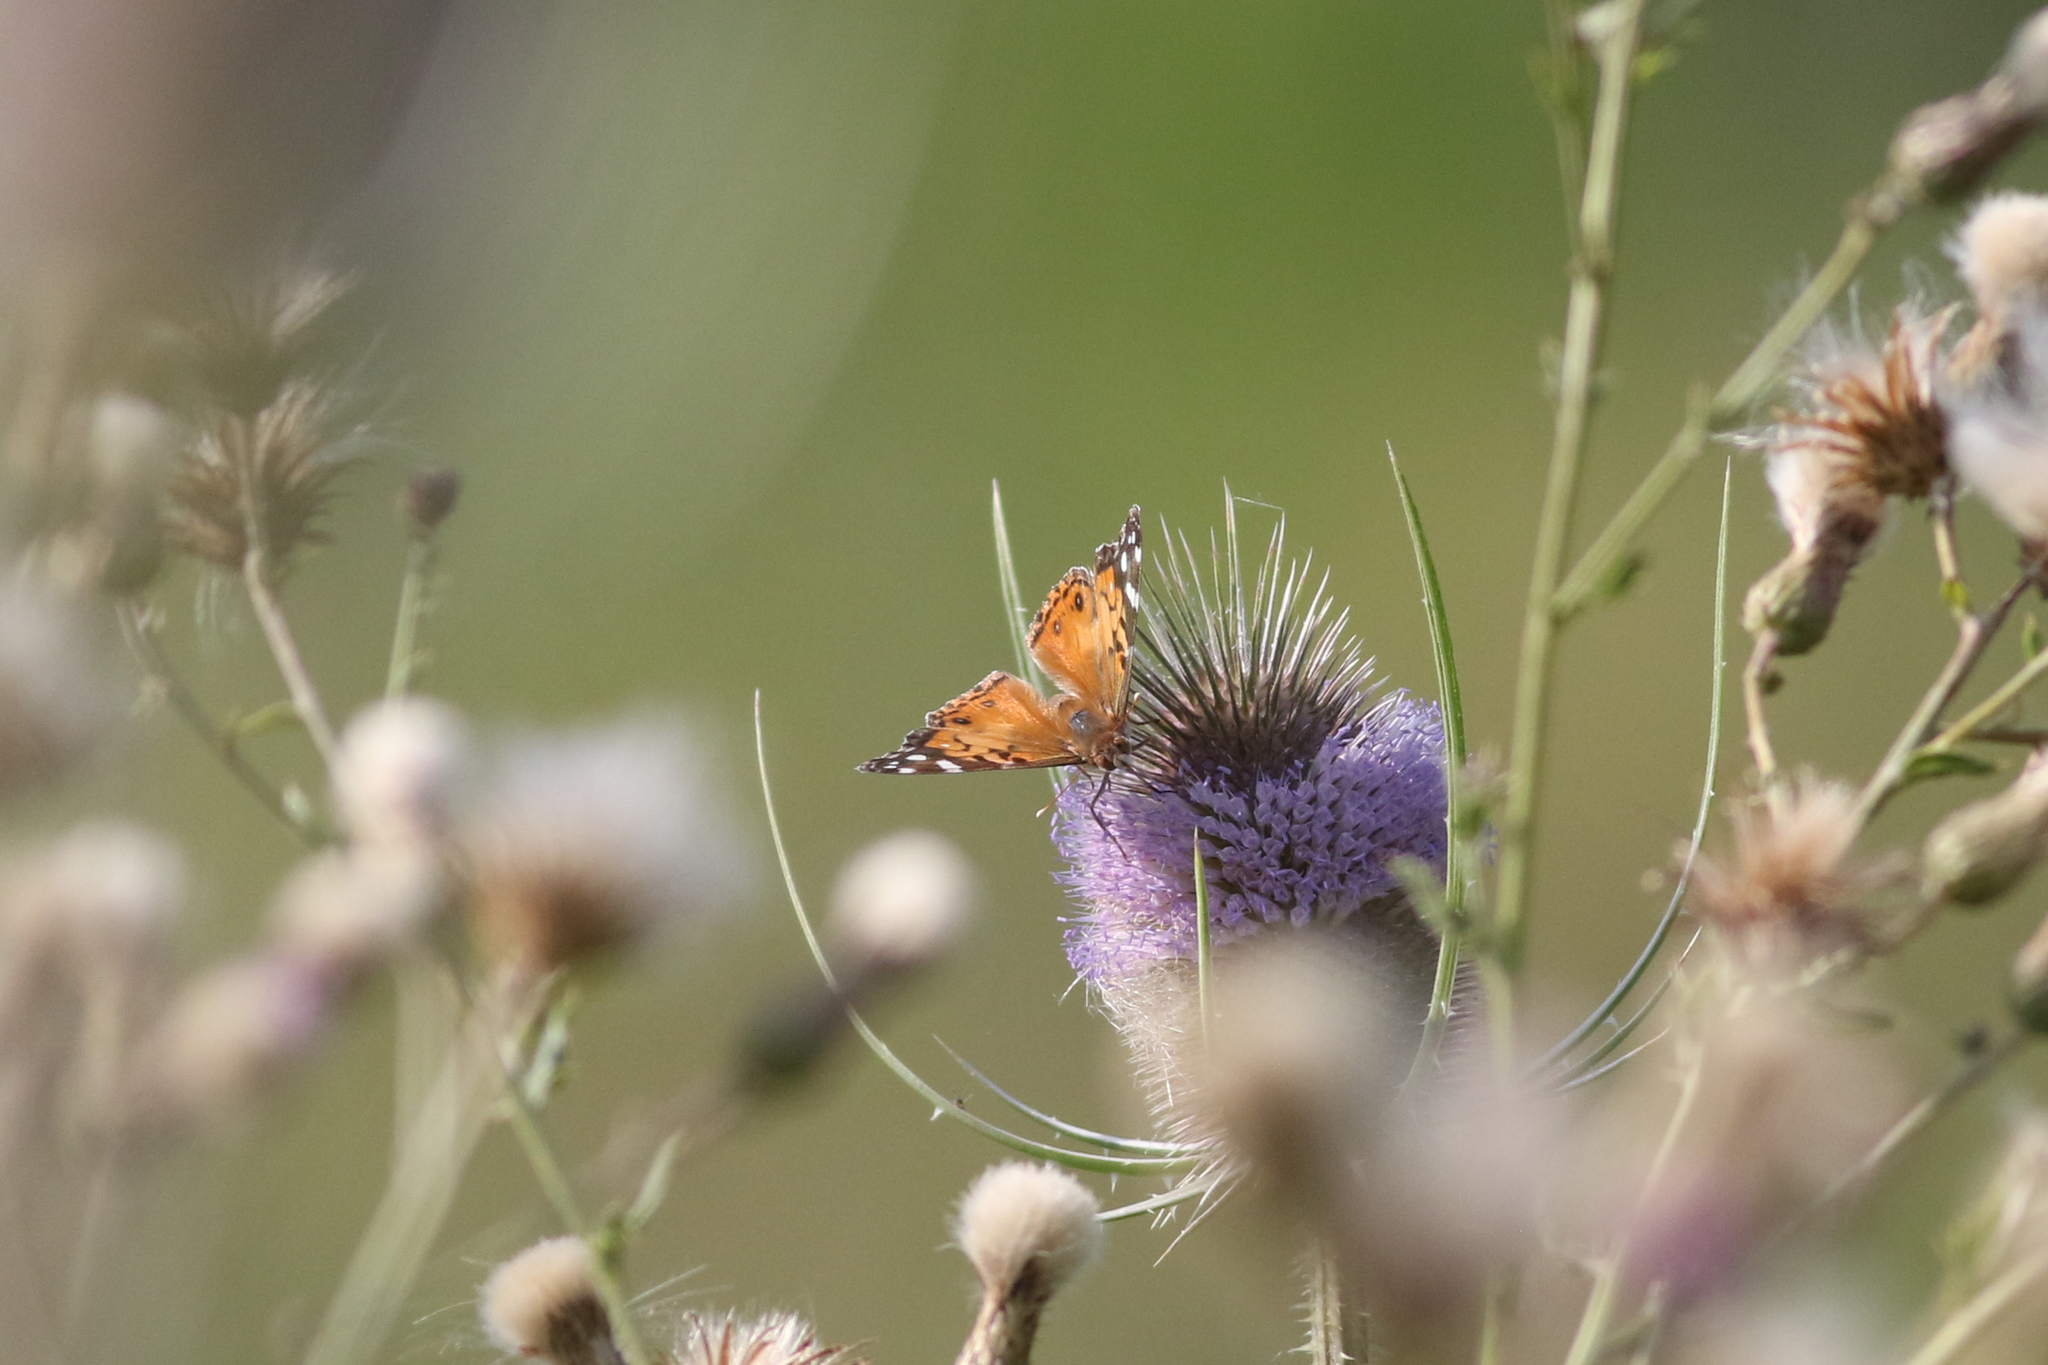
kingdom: Animalia
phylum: Arthropoda
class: Insecta
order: Lepidoptera
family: Nymphalidae
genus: Vanessa
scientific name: Vanessa virginiensis
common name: American lady
